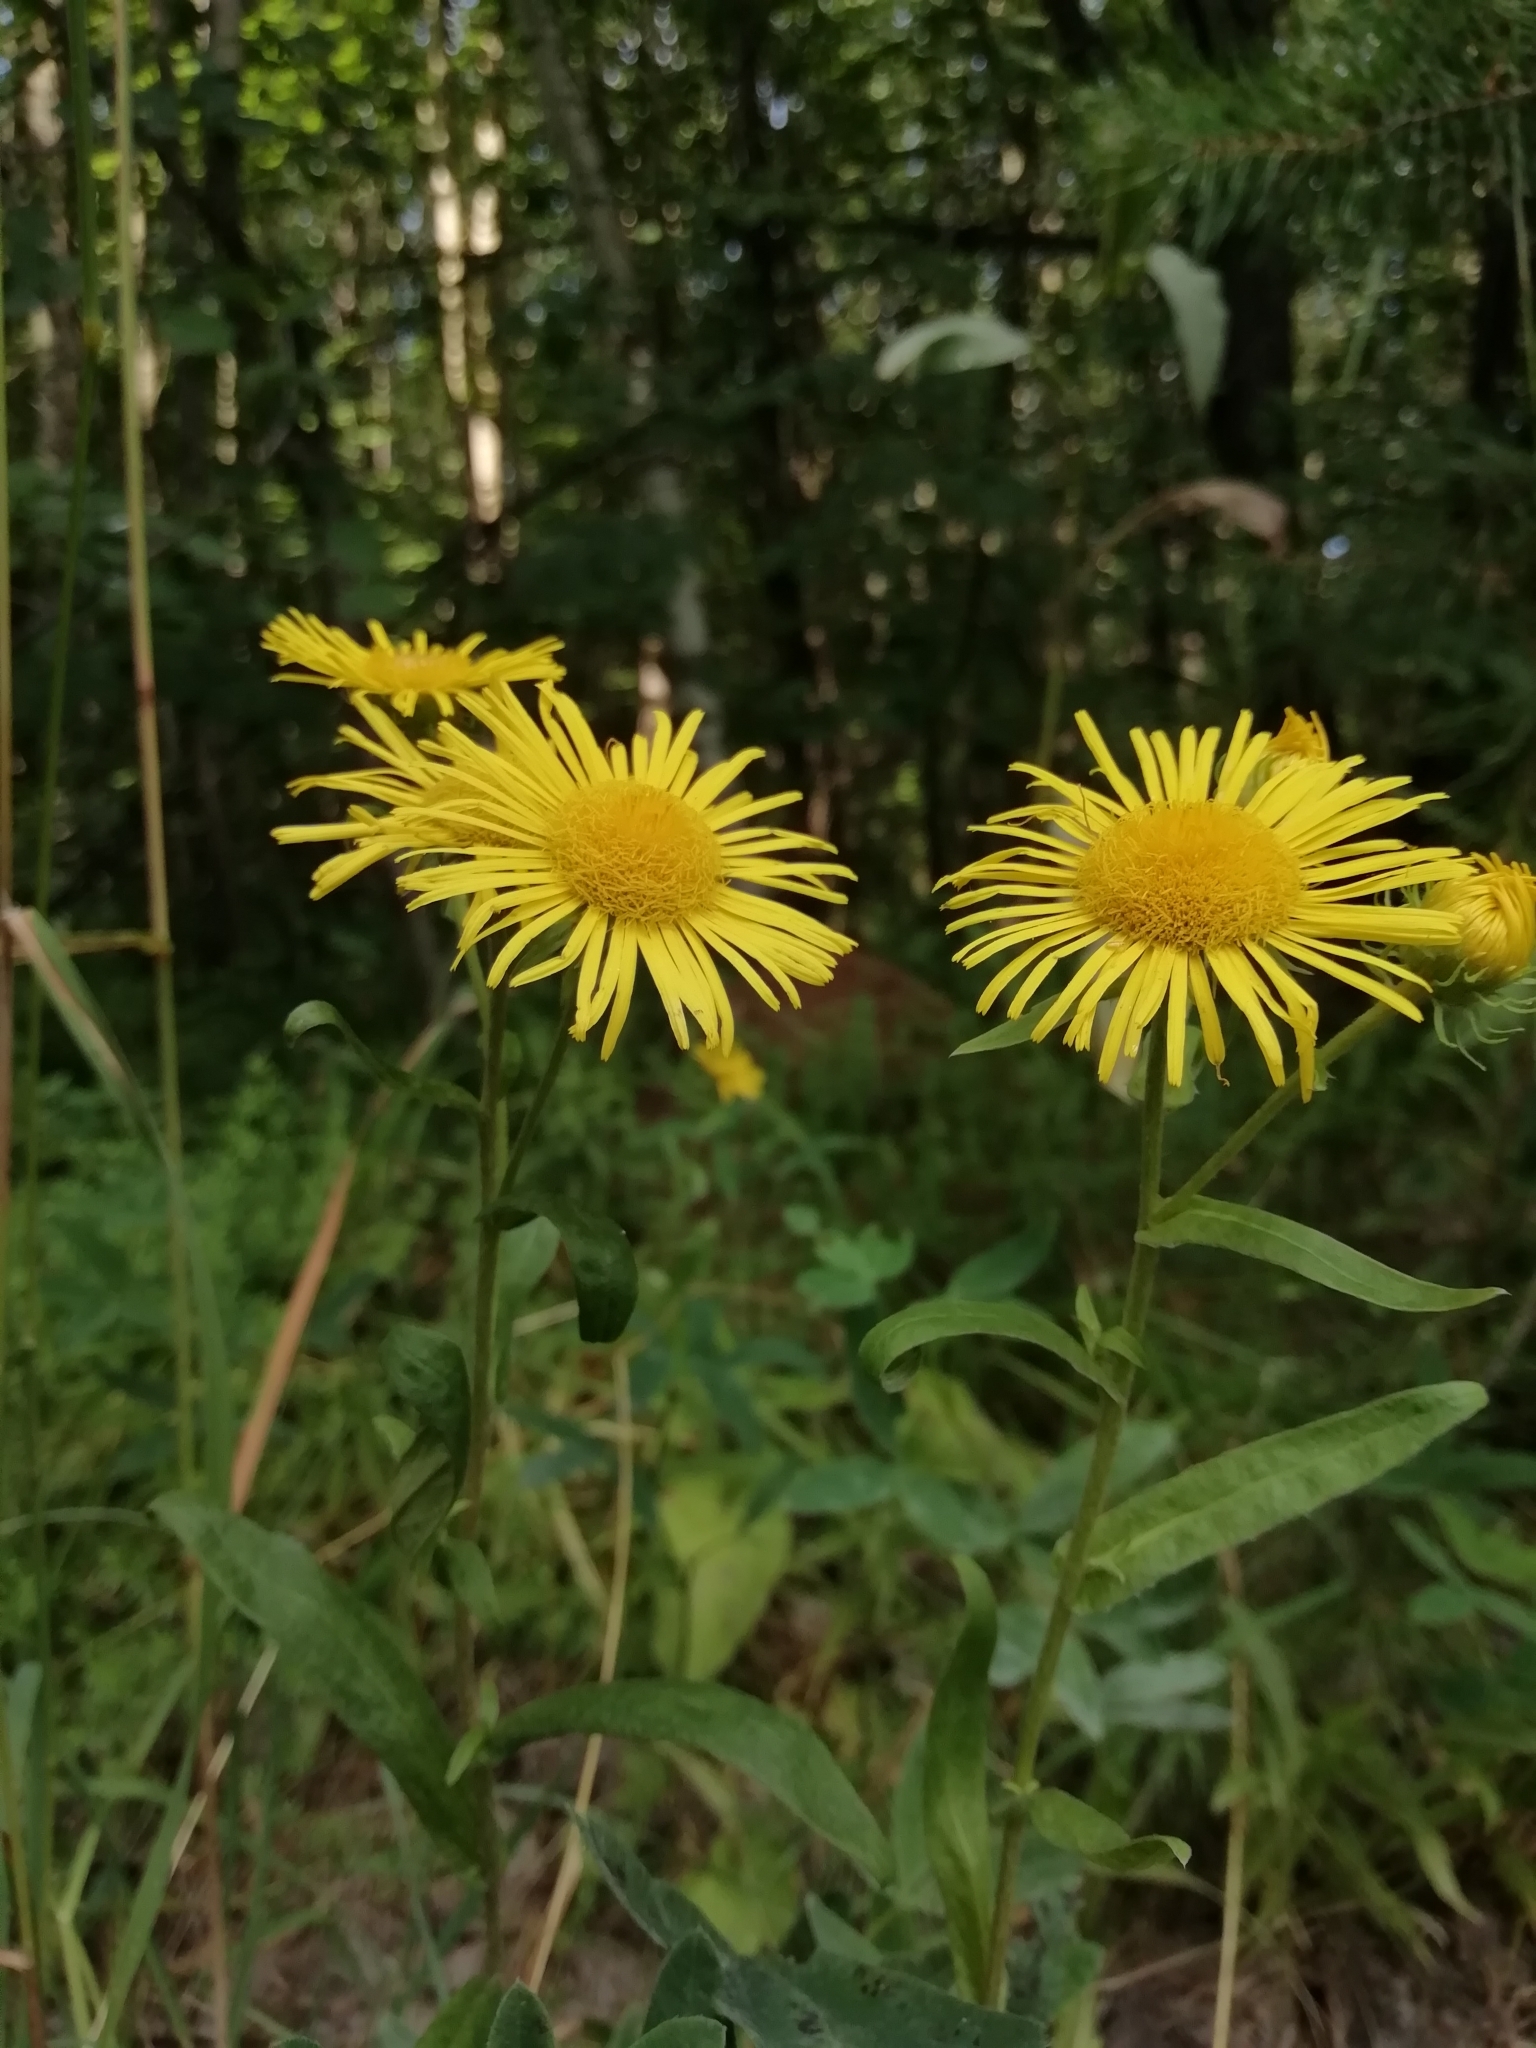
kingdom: Plantae
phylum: Tracheophyta
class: Magnoliopsida
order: Asterales
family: Asteraceae
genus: Pentanema
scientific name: Pentanema britannicum
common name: British elecampane
